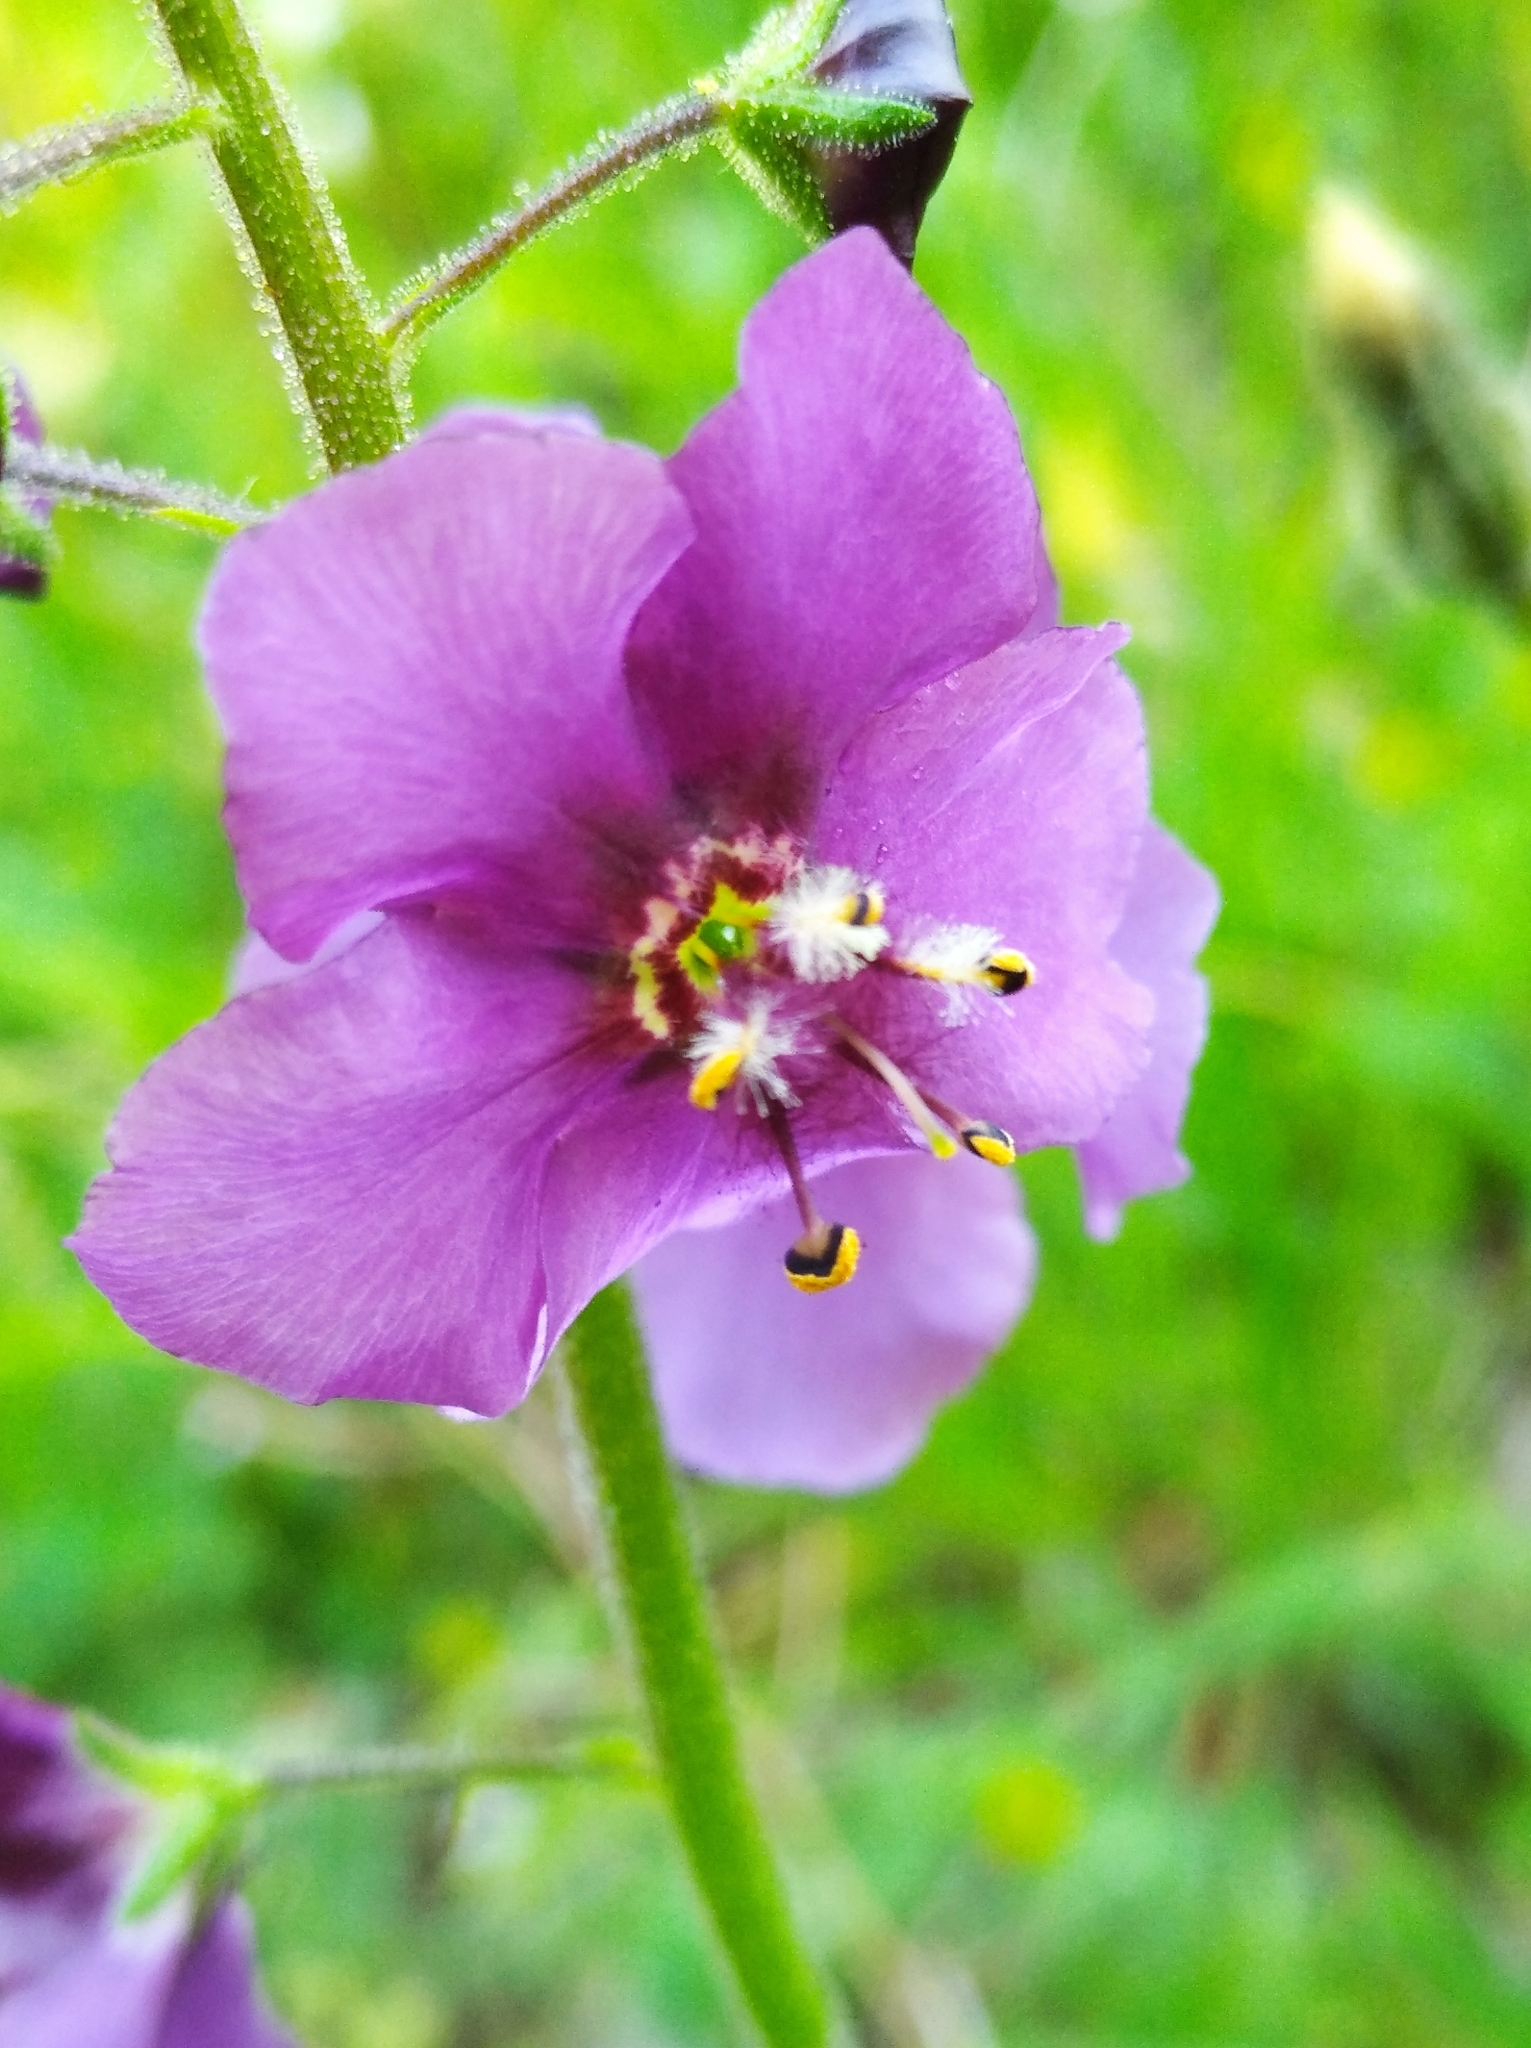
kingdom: Plantae
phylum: Tracheophyta
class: Magnoliopsida
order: Lamiales
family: Scrophulariaceae
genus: Verbascum
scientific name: Verbascum phoeniceum
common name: Purple mullein
